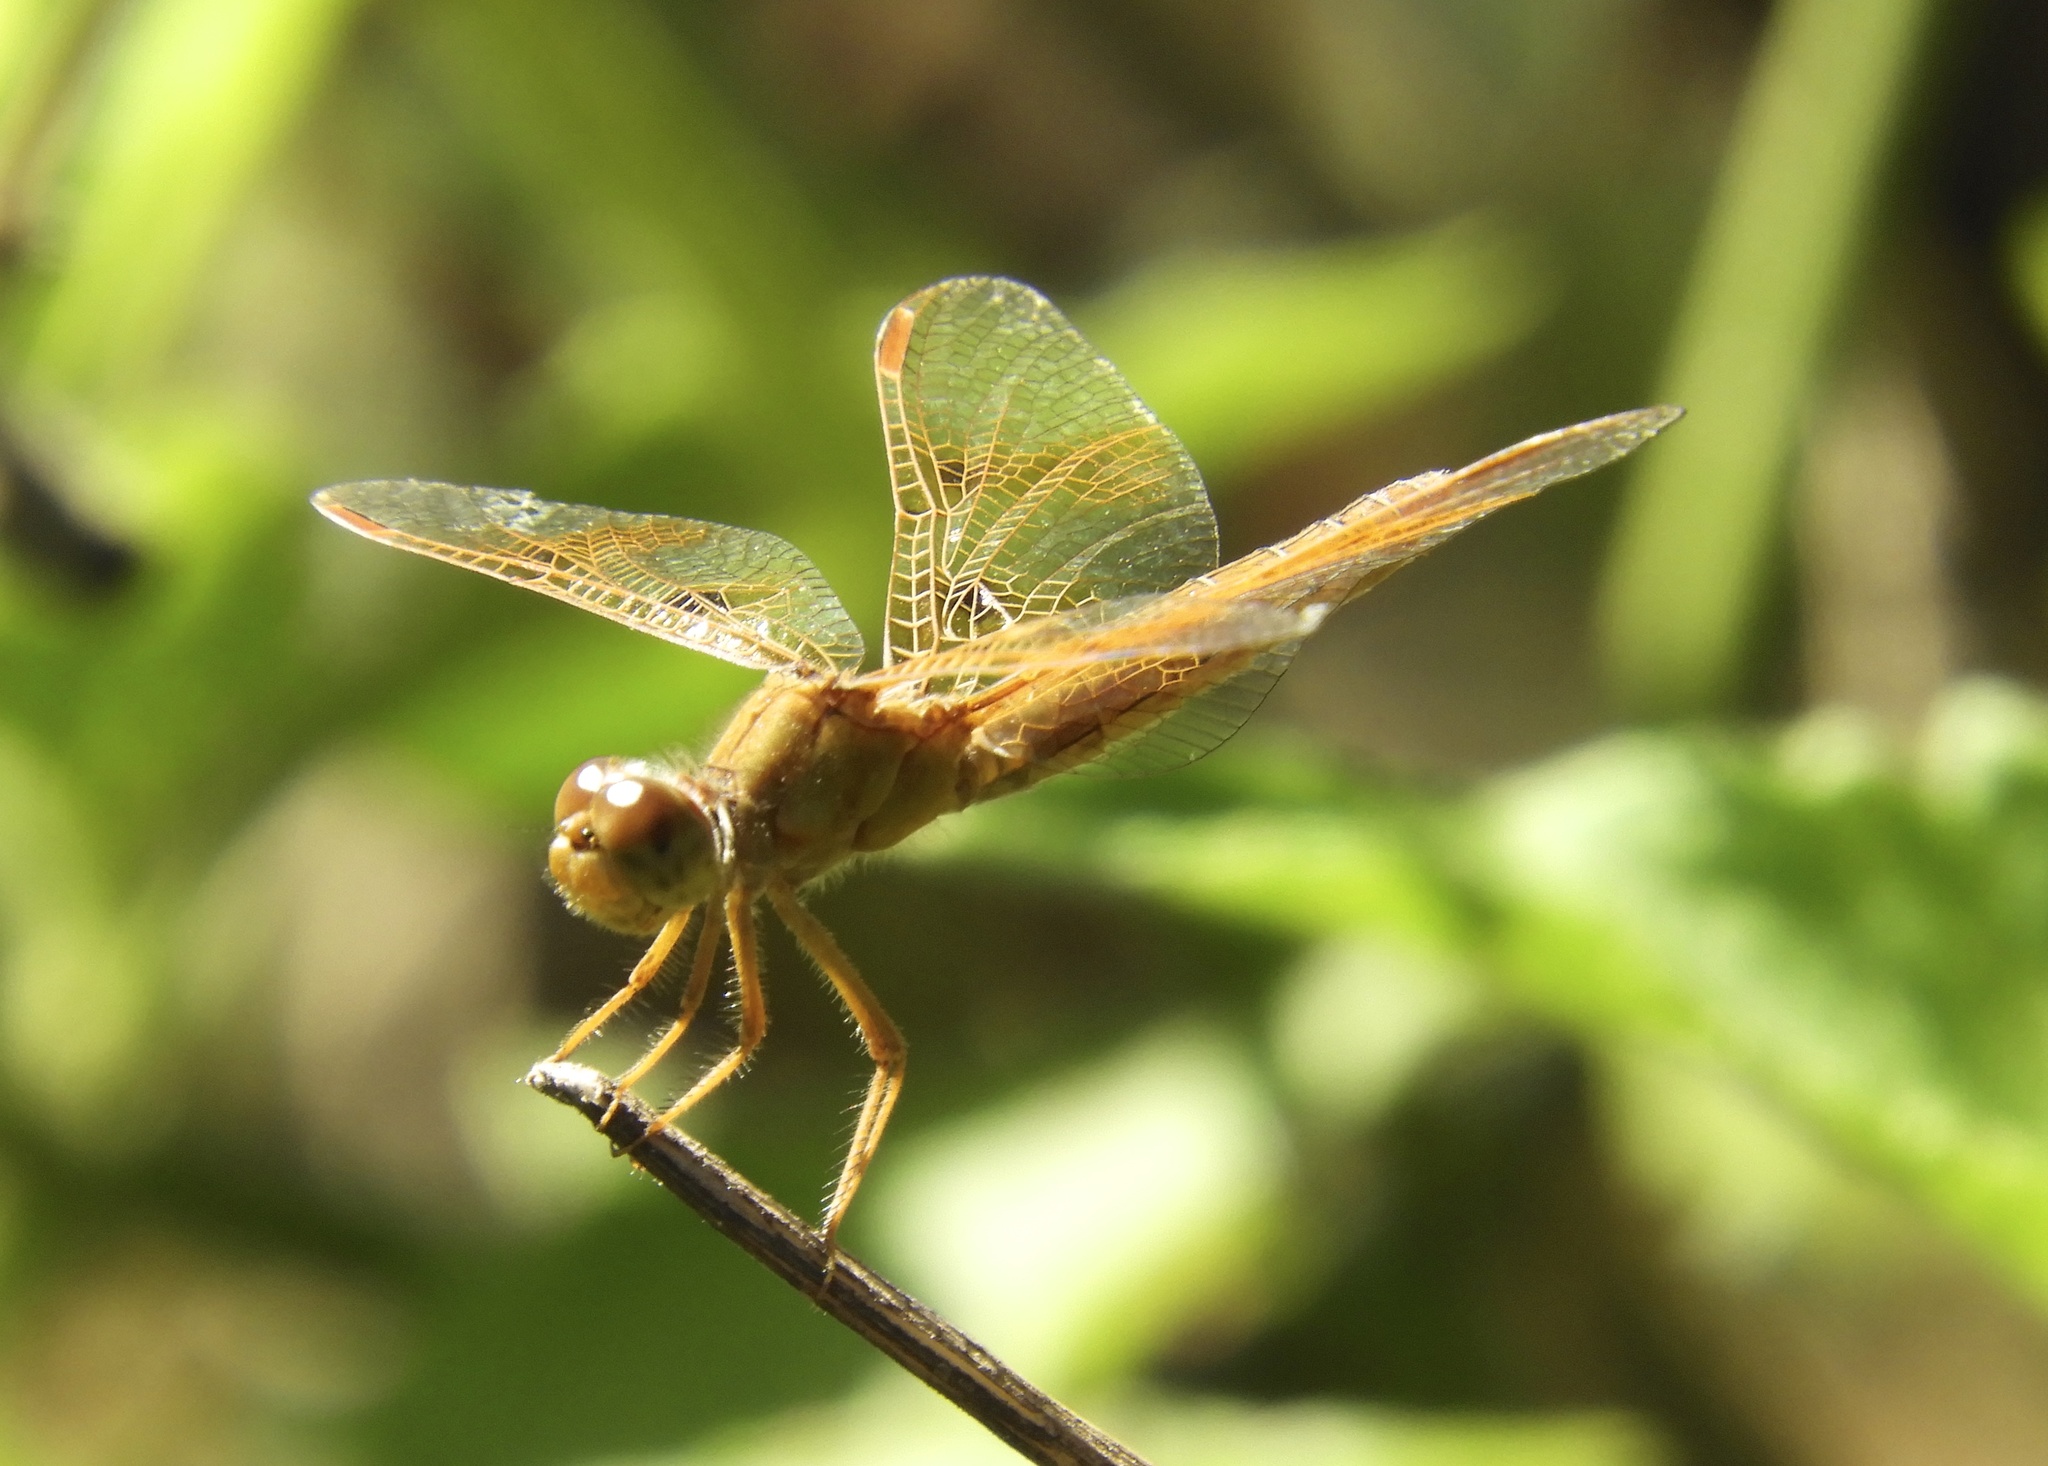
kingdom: Animalia
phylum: Arthropoda
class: Insecta
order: Odonata
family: Libellulidae
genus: Perithemis
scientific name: Perithemis intensa
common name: Mexican amberwing
